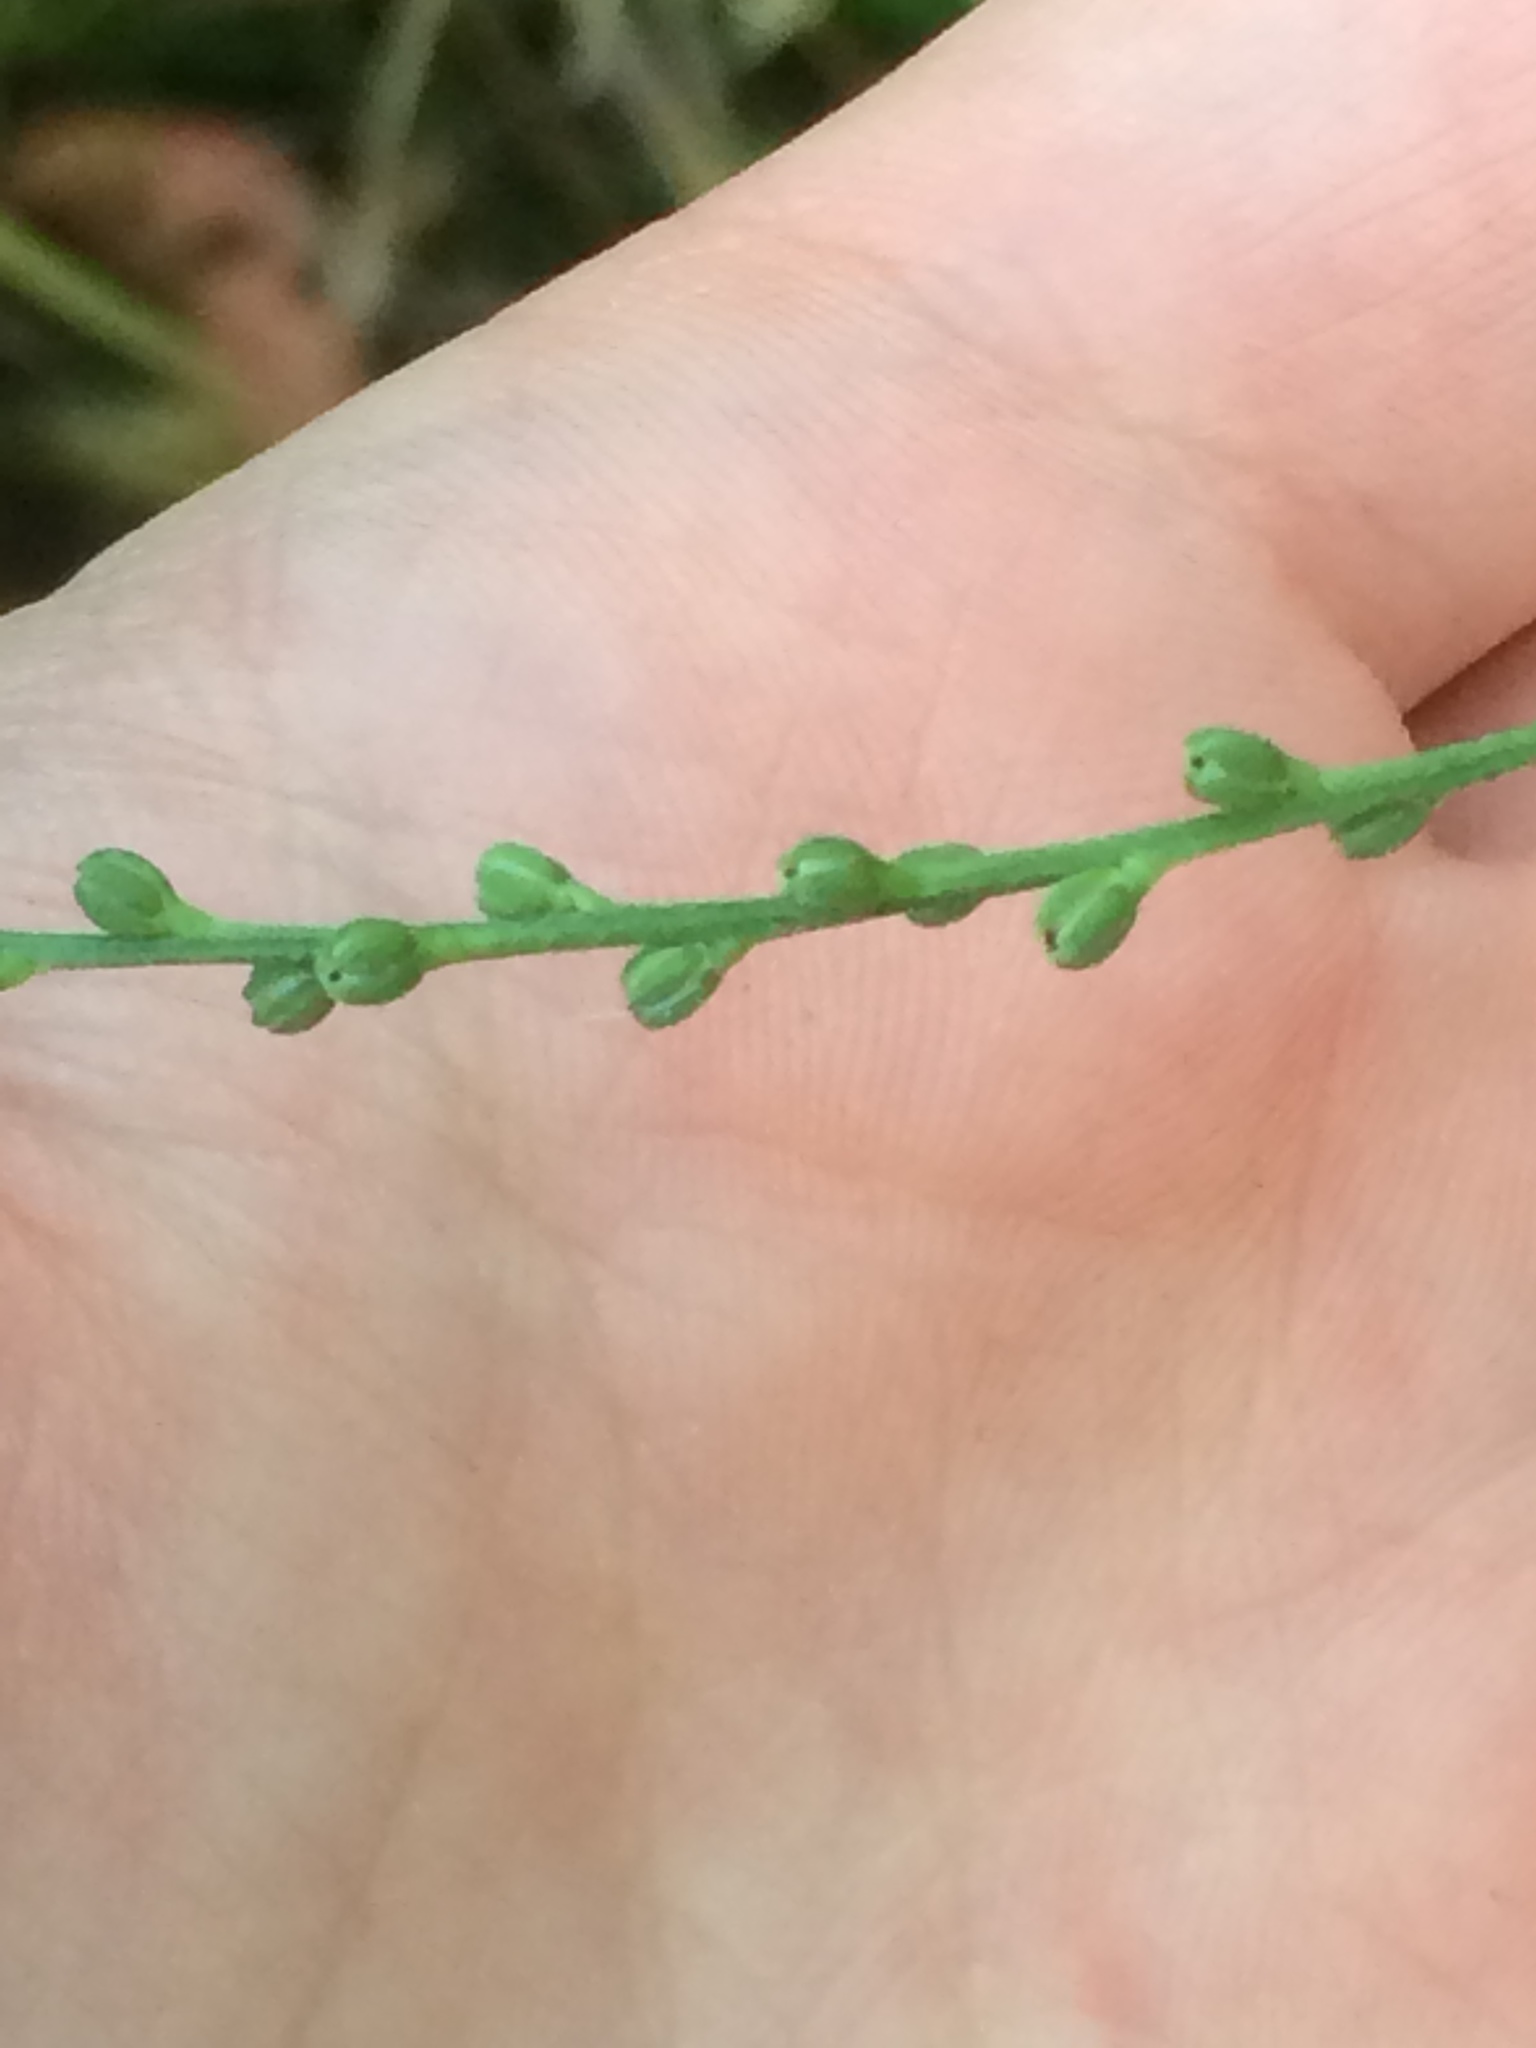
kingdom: Plantae
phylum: Tracheophyta
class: Magnoliopsida
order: Lamiales
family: Verbenaceae
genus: Verbena
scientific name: Verbena urticifolia
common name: Nettle-leaved vervain
